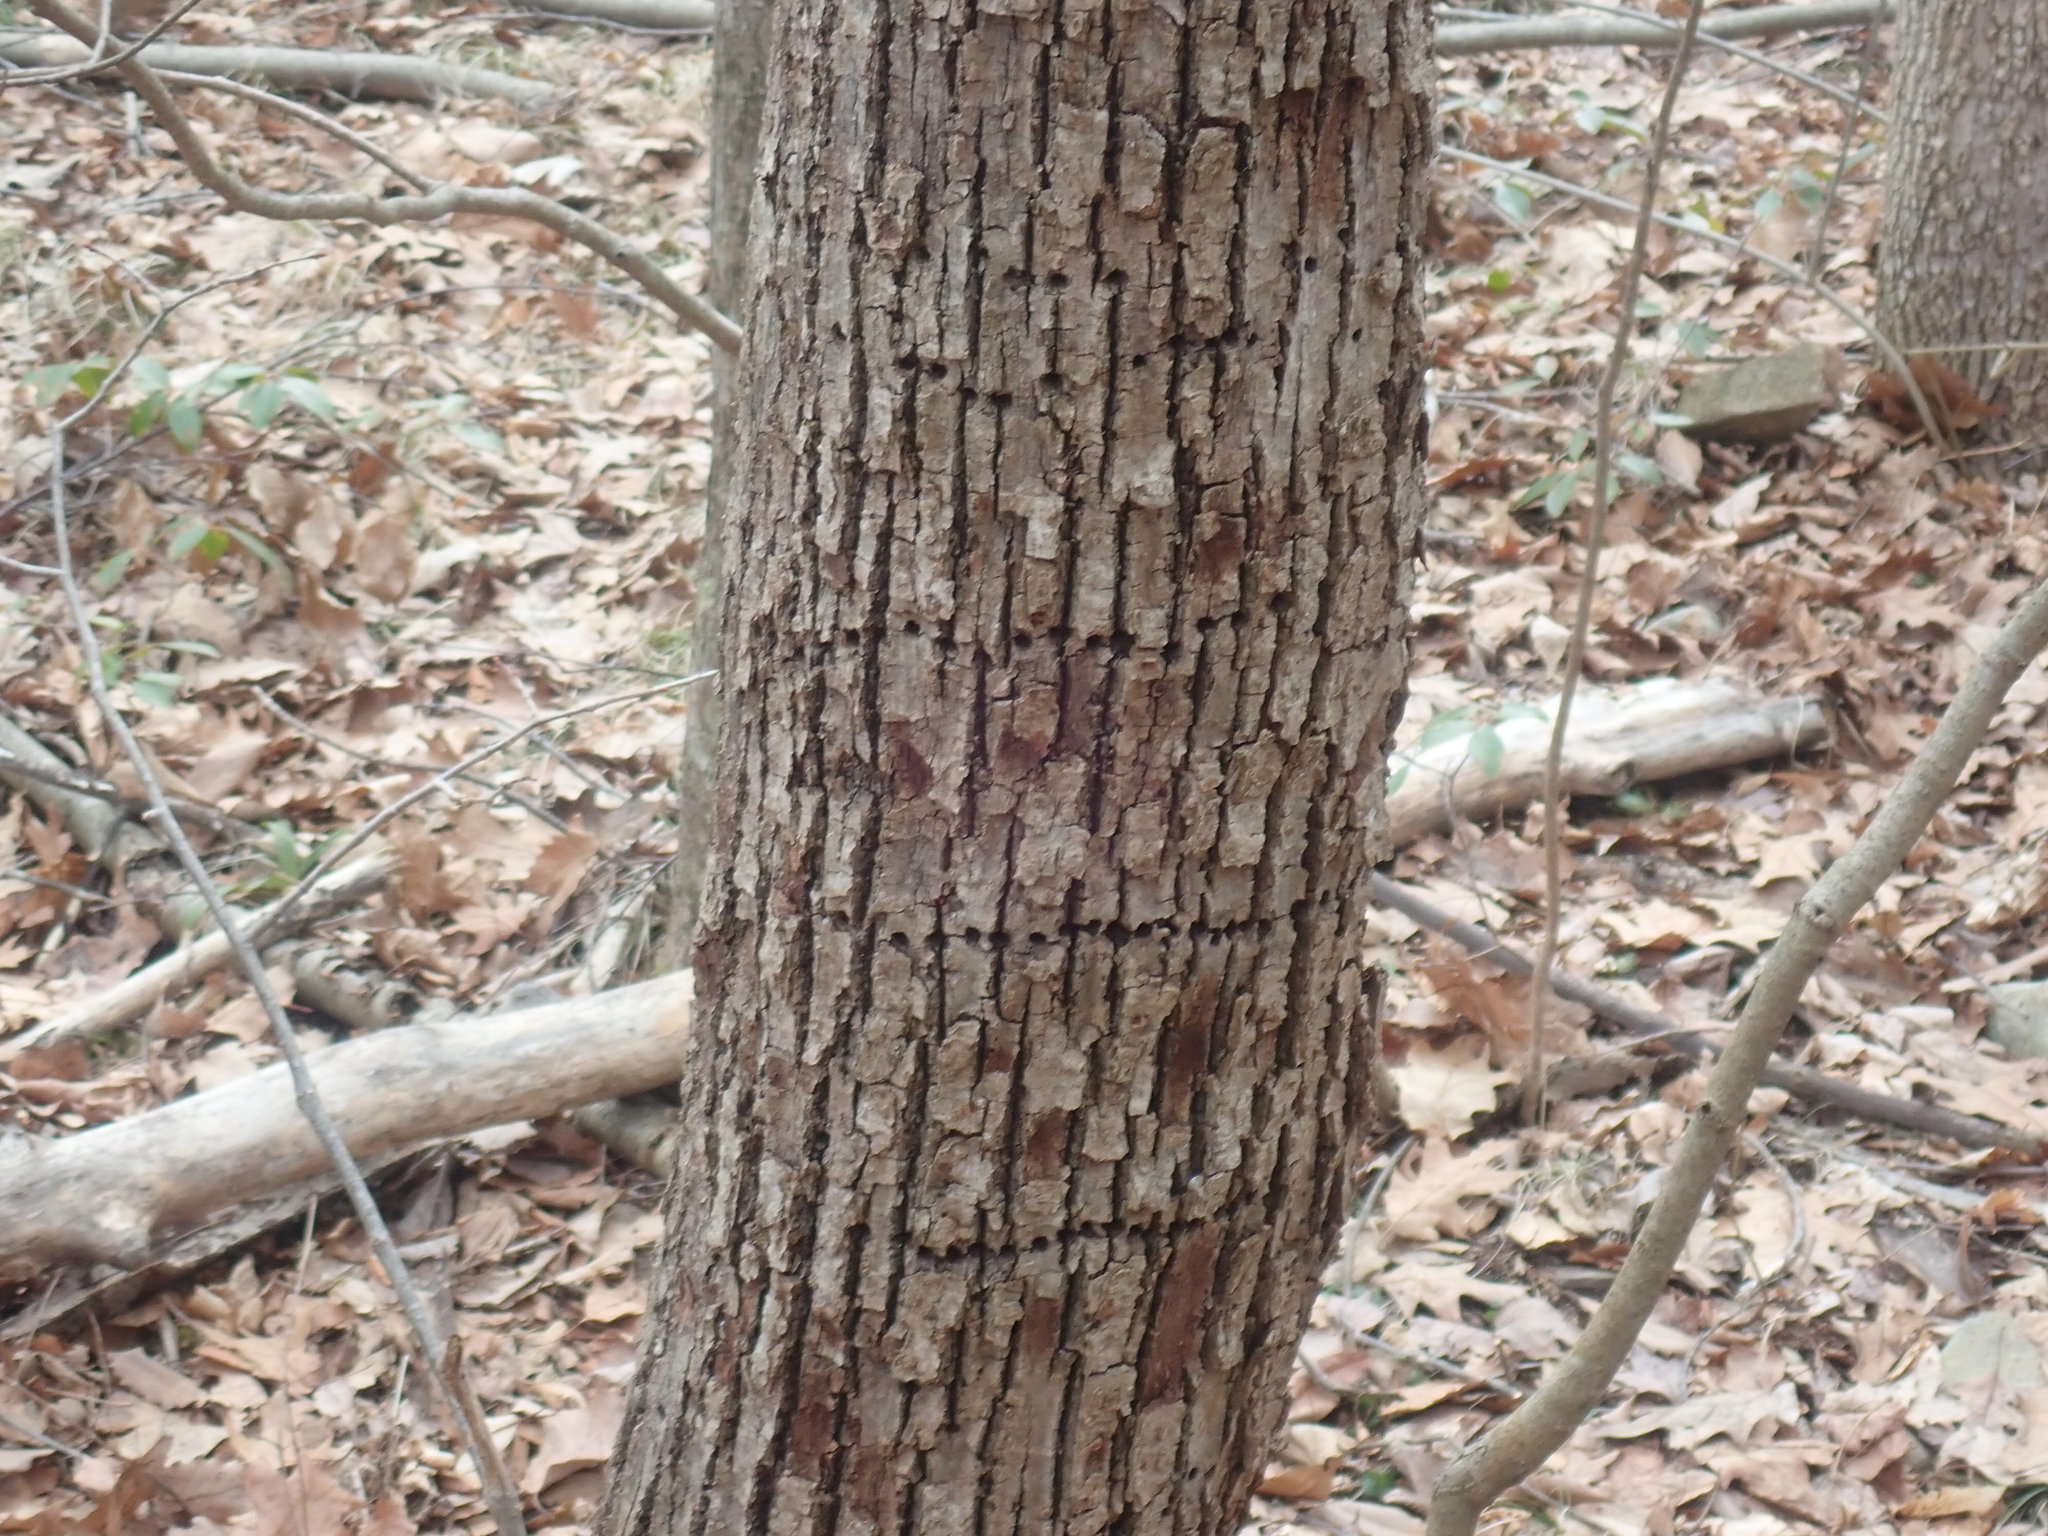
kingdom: Animalia
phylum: Chordata
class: Aves
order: Piciformes
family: Picidae
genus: Sphyrapicus
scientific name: Sphyrapicus varius
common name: Yellow-bellied sapsucker
